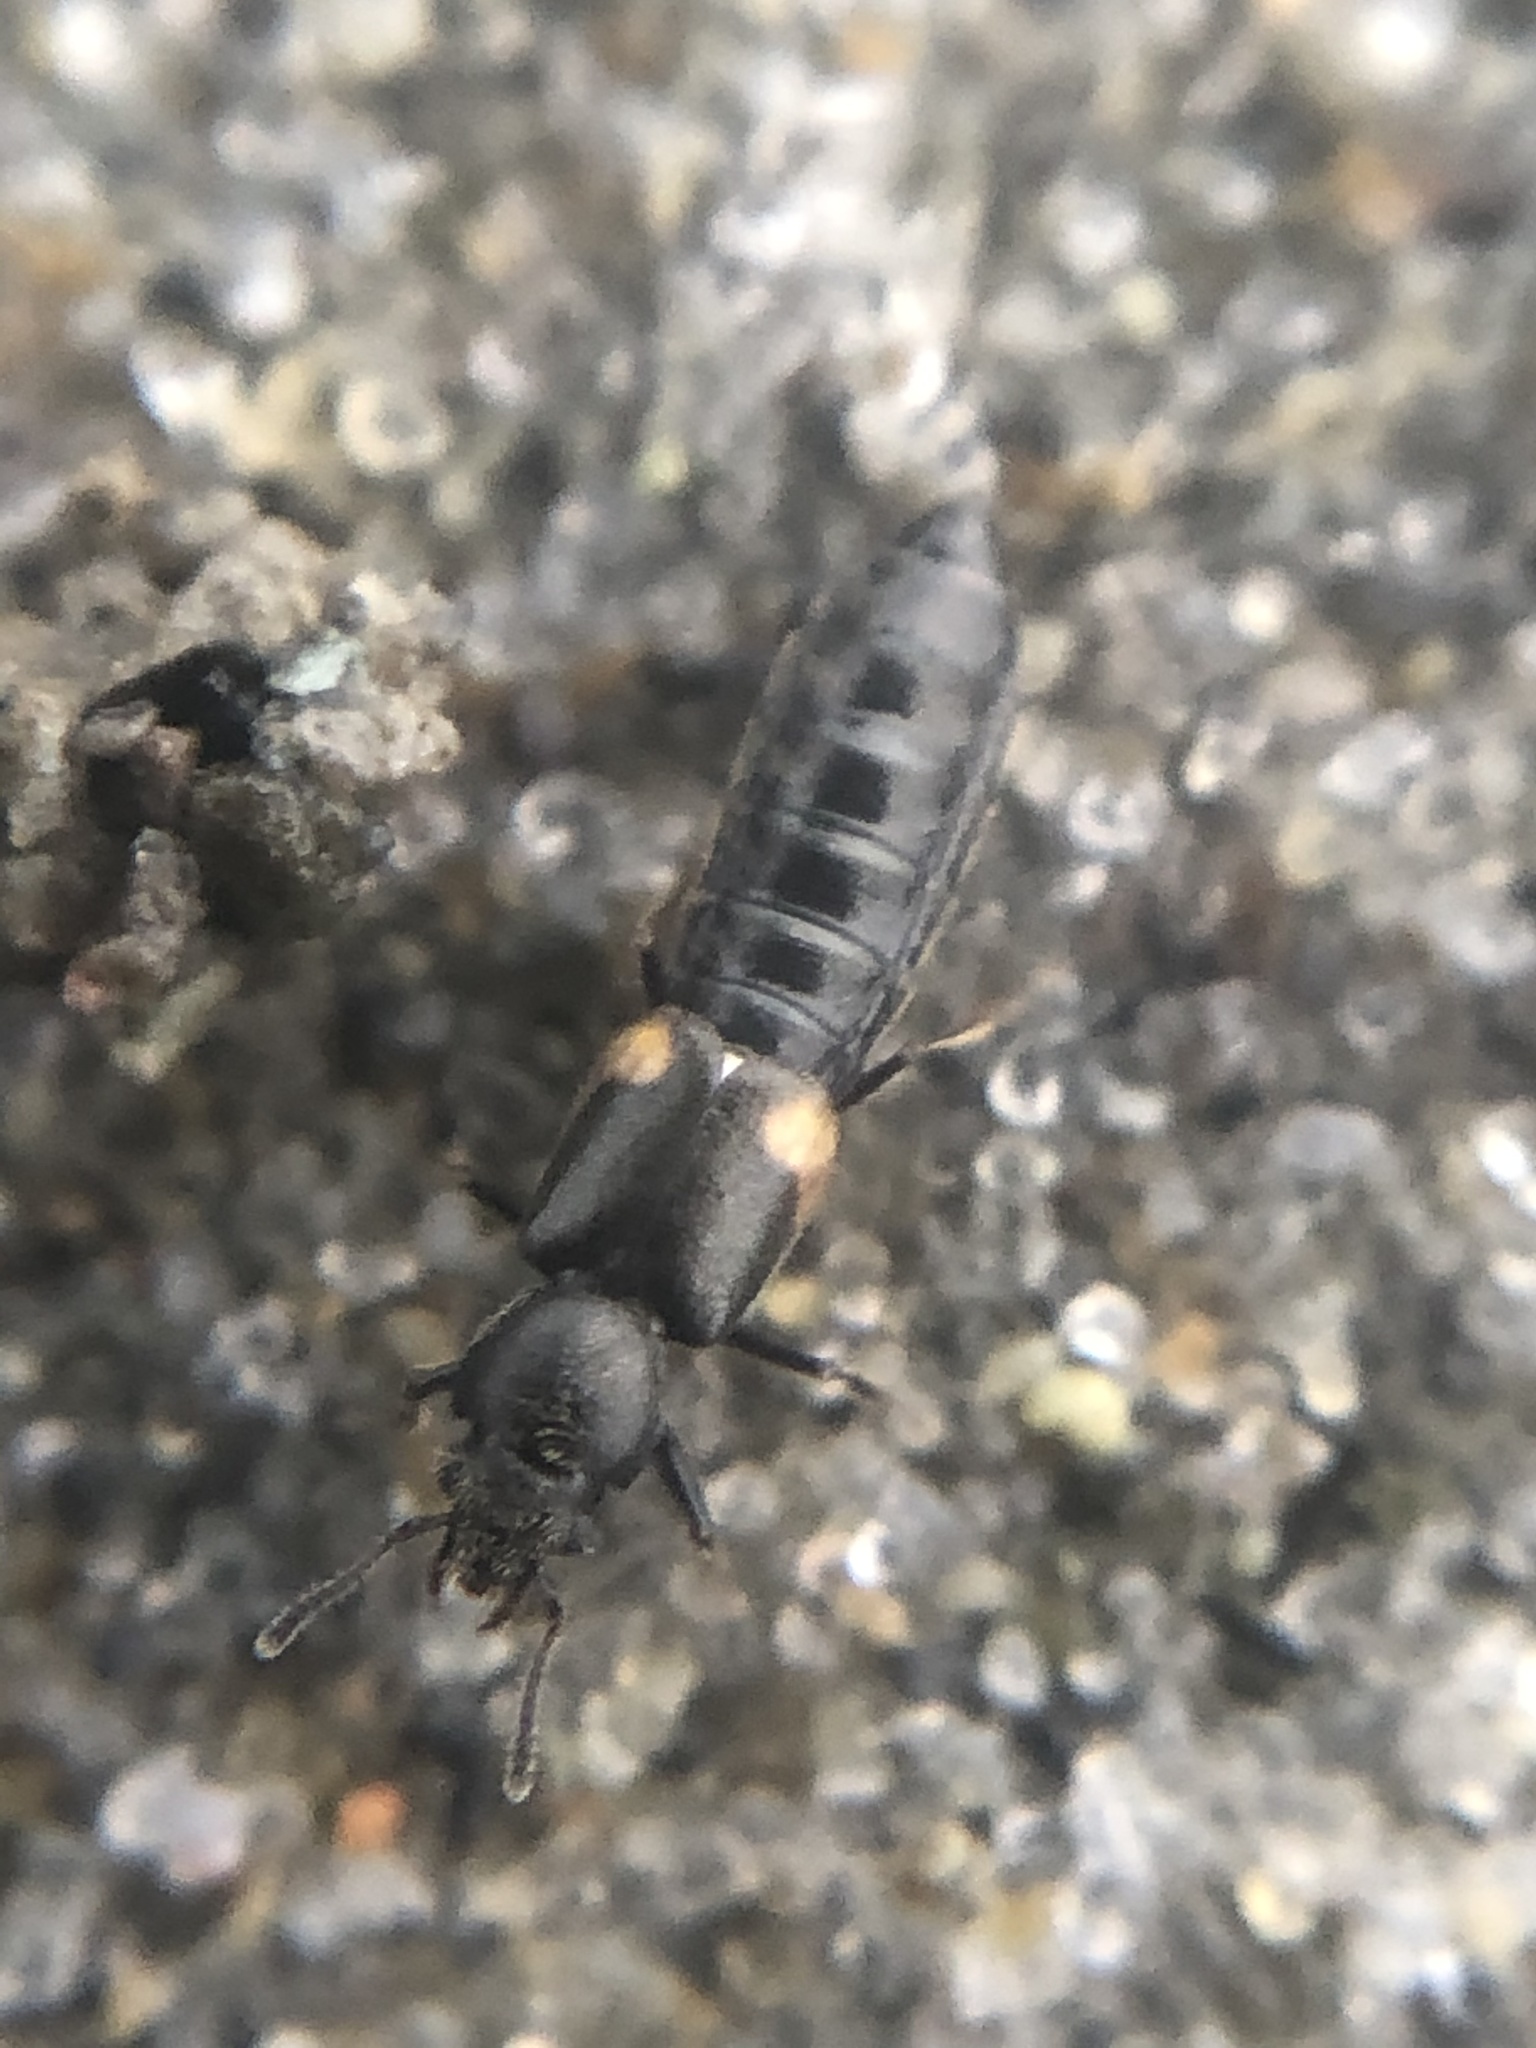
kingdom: Animalia
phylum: Arthropoda
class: Insecta
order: Coleoptera
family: Staphylinidae
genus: Bledius
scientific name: Bledius albonotatus
